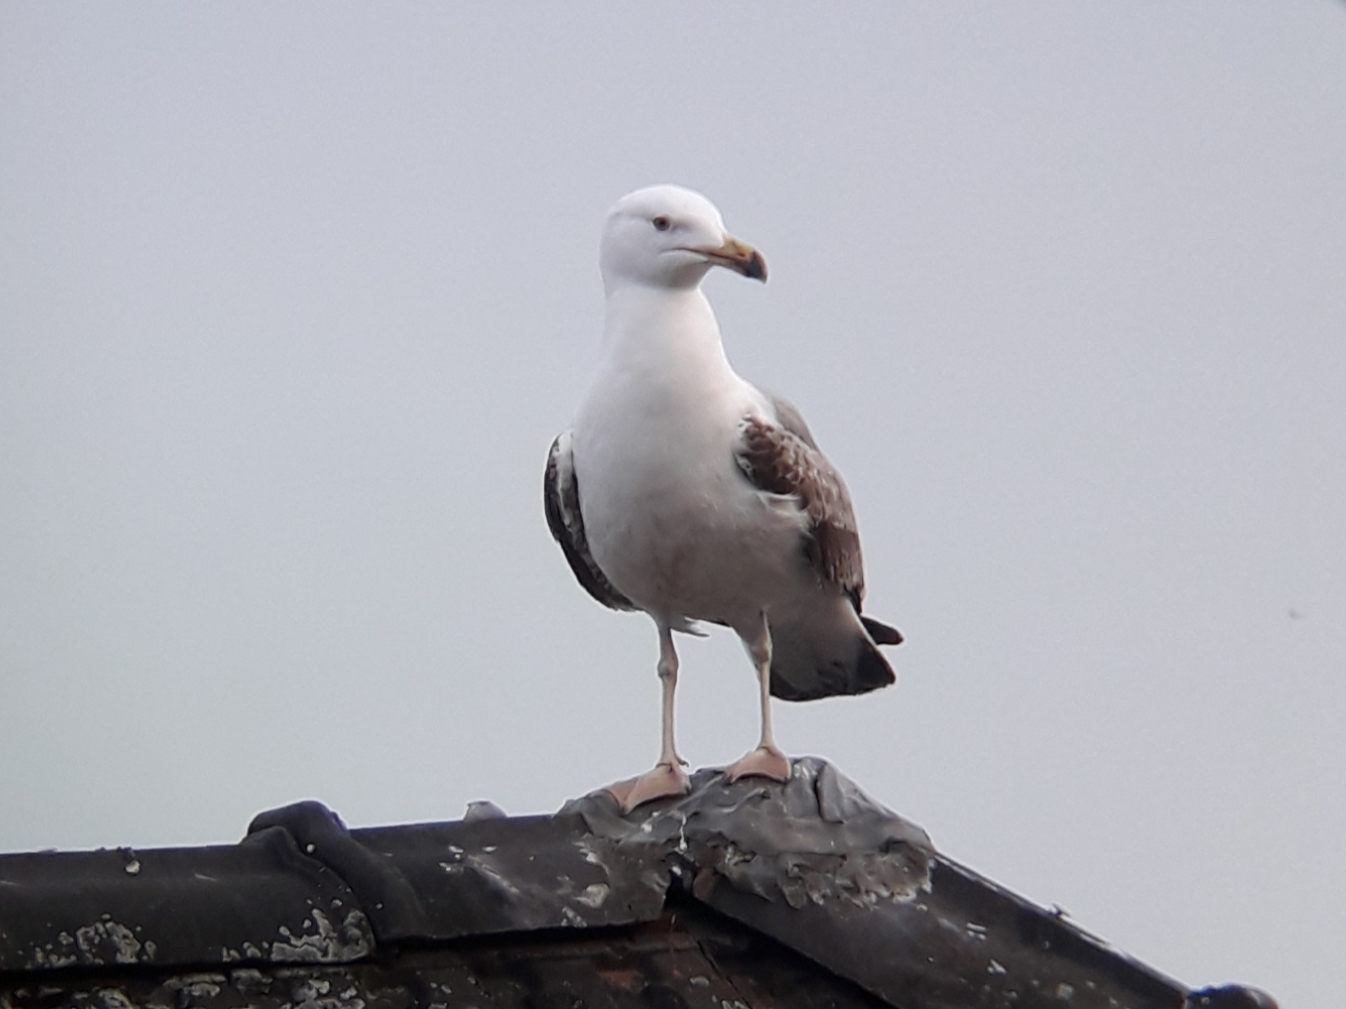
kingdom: Animalia
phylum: Chordata
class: Aves
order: Charadriiformes
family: Laridae
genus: Larus
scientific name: Larus michahellis
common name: Yellow-legged gull
